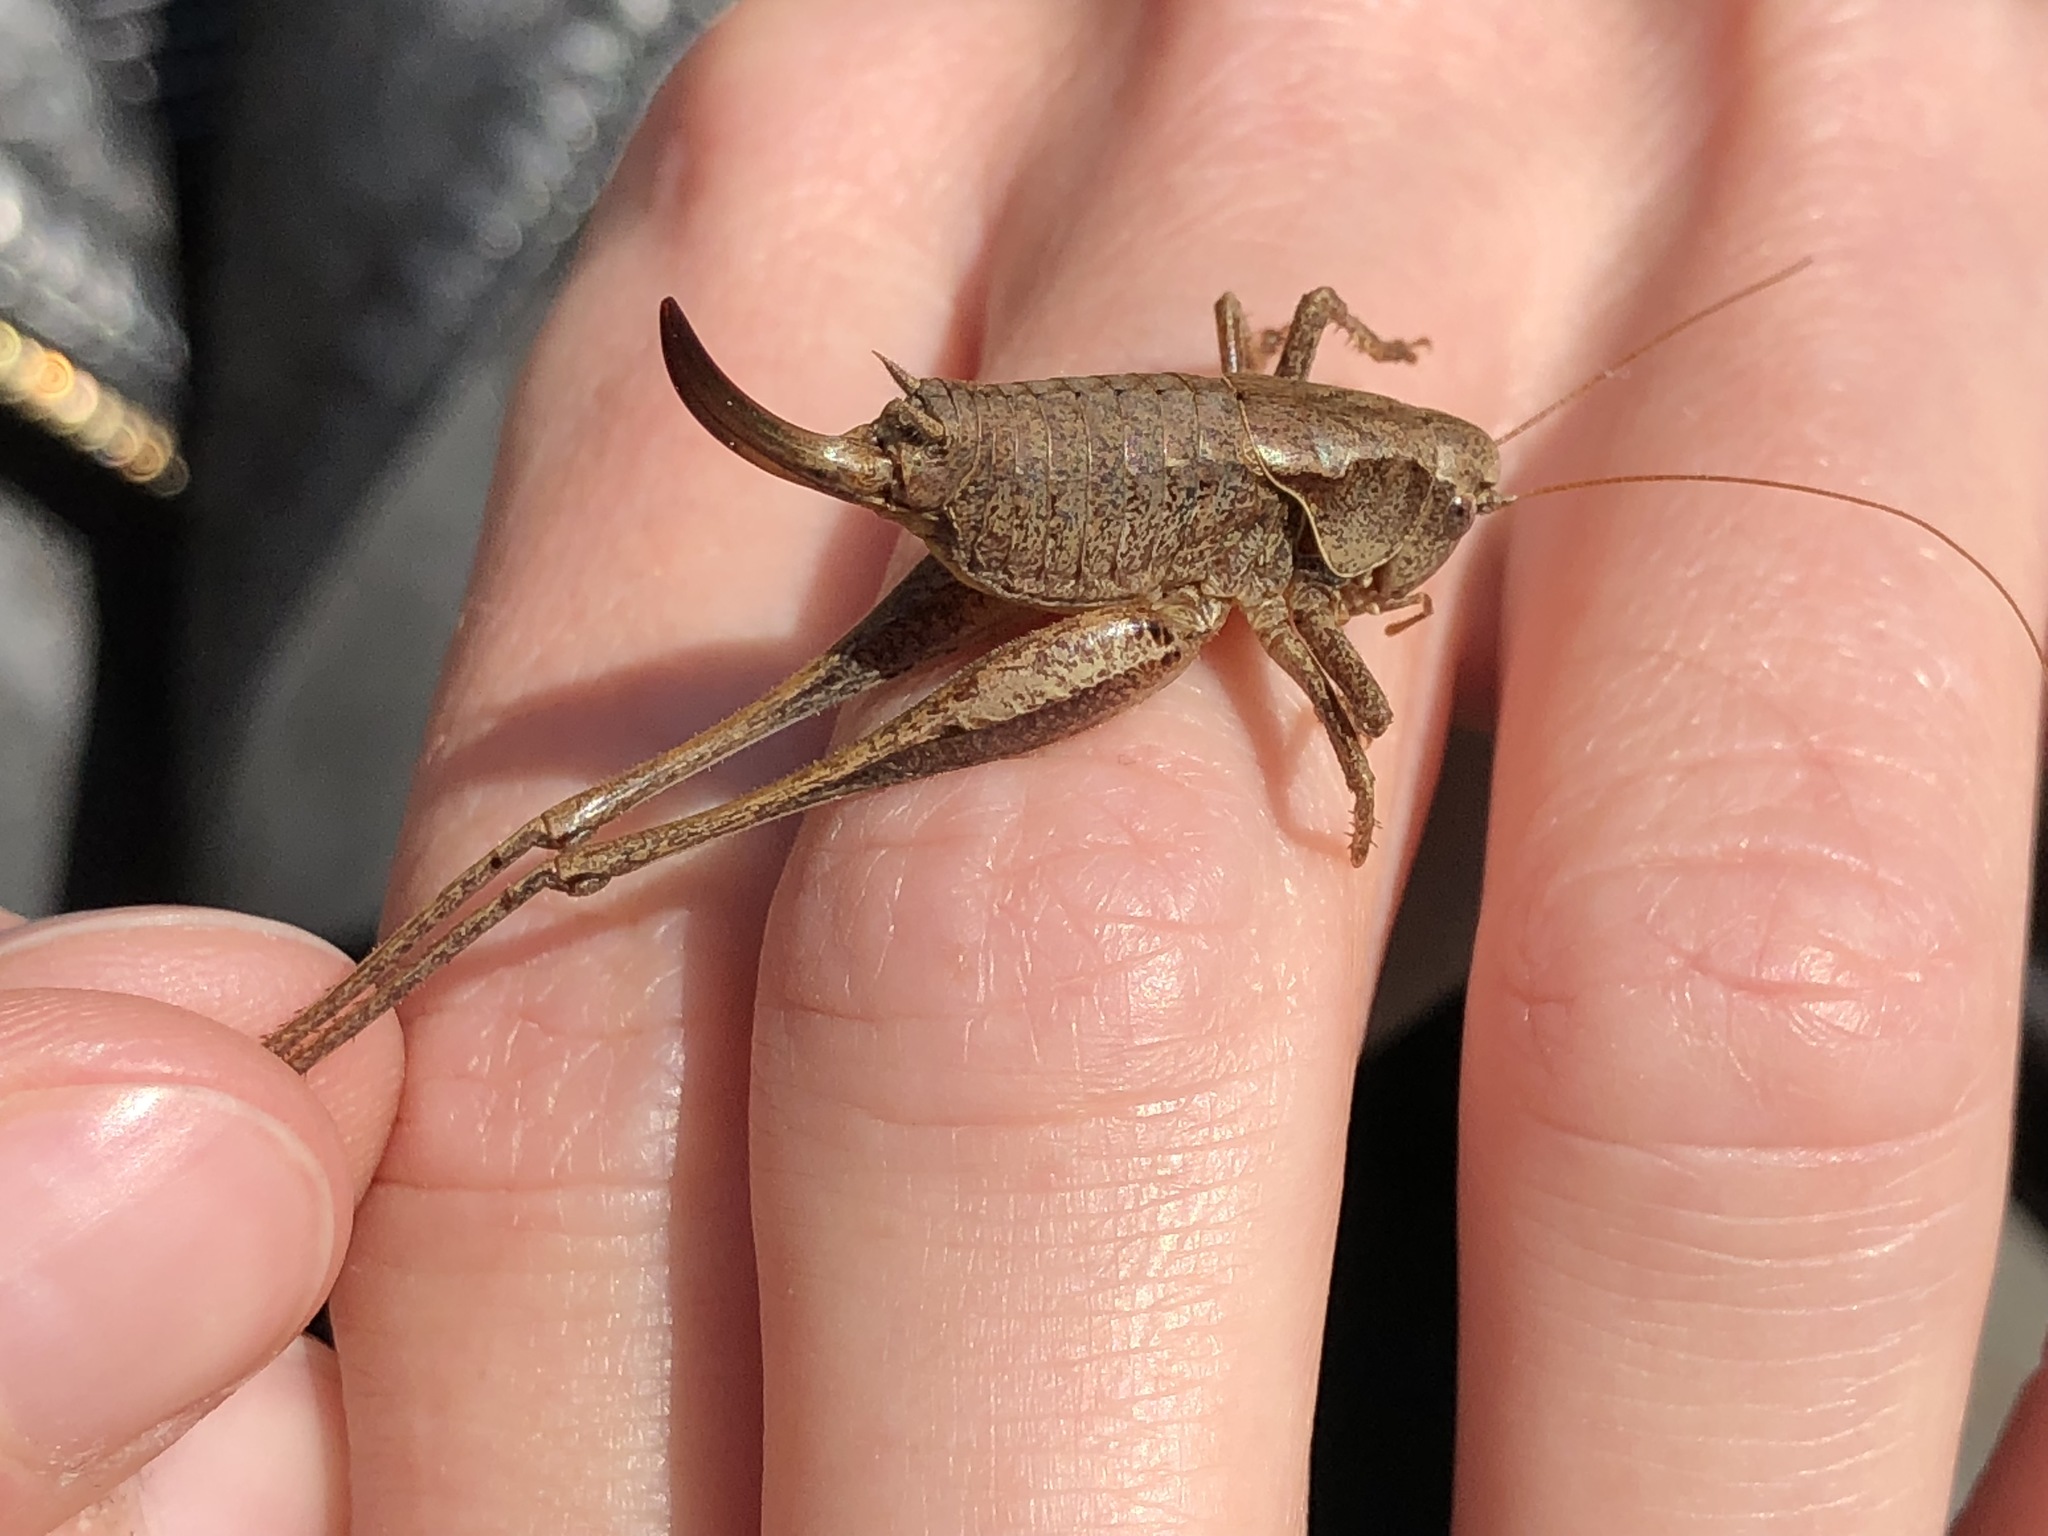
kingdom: Animalia
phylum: Arthropoda
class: Insecta
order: Orthoptera
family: Tettigoniidae
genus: Pholidoptera
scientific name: Pholidoptera griseoaptera
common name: Dark bush-cricket
